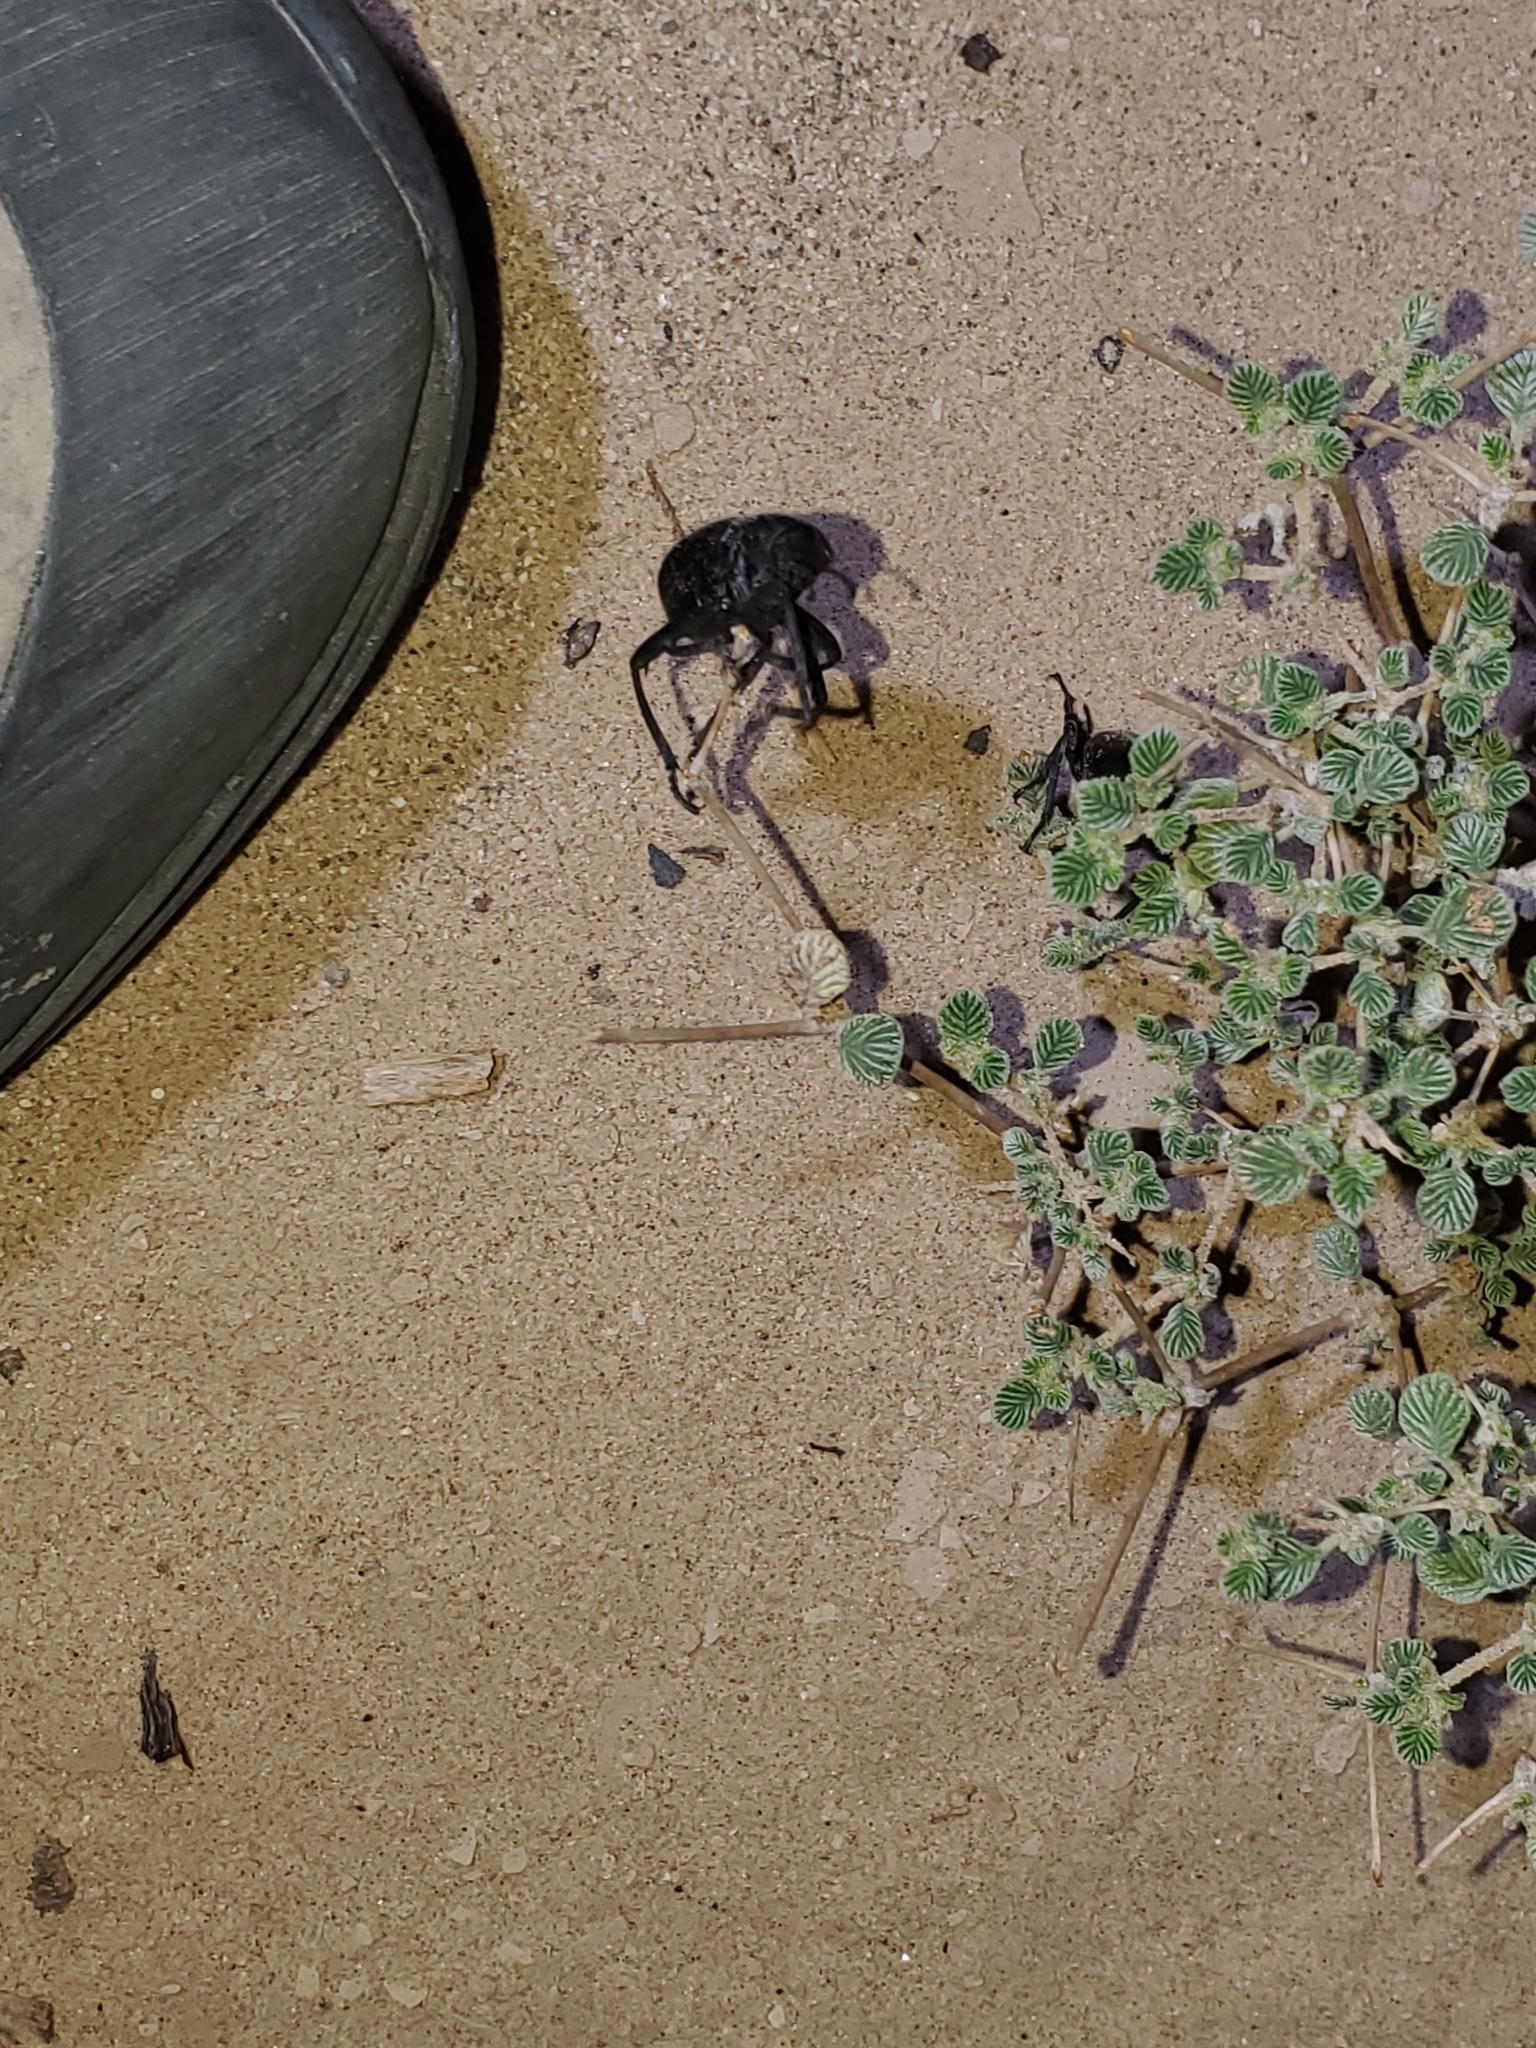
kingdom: Plantae
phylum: Tracheophyta
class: Magnoliopsida
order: Boraginales
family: Ehretiaceae
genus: Tiquilia
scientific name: Tiquilia plicata
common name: Fan-leaf tiquilia
